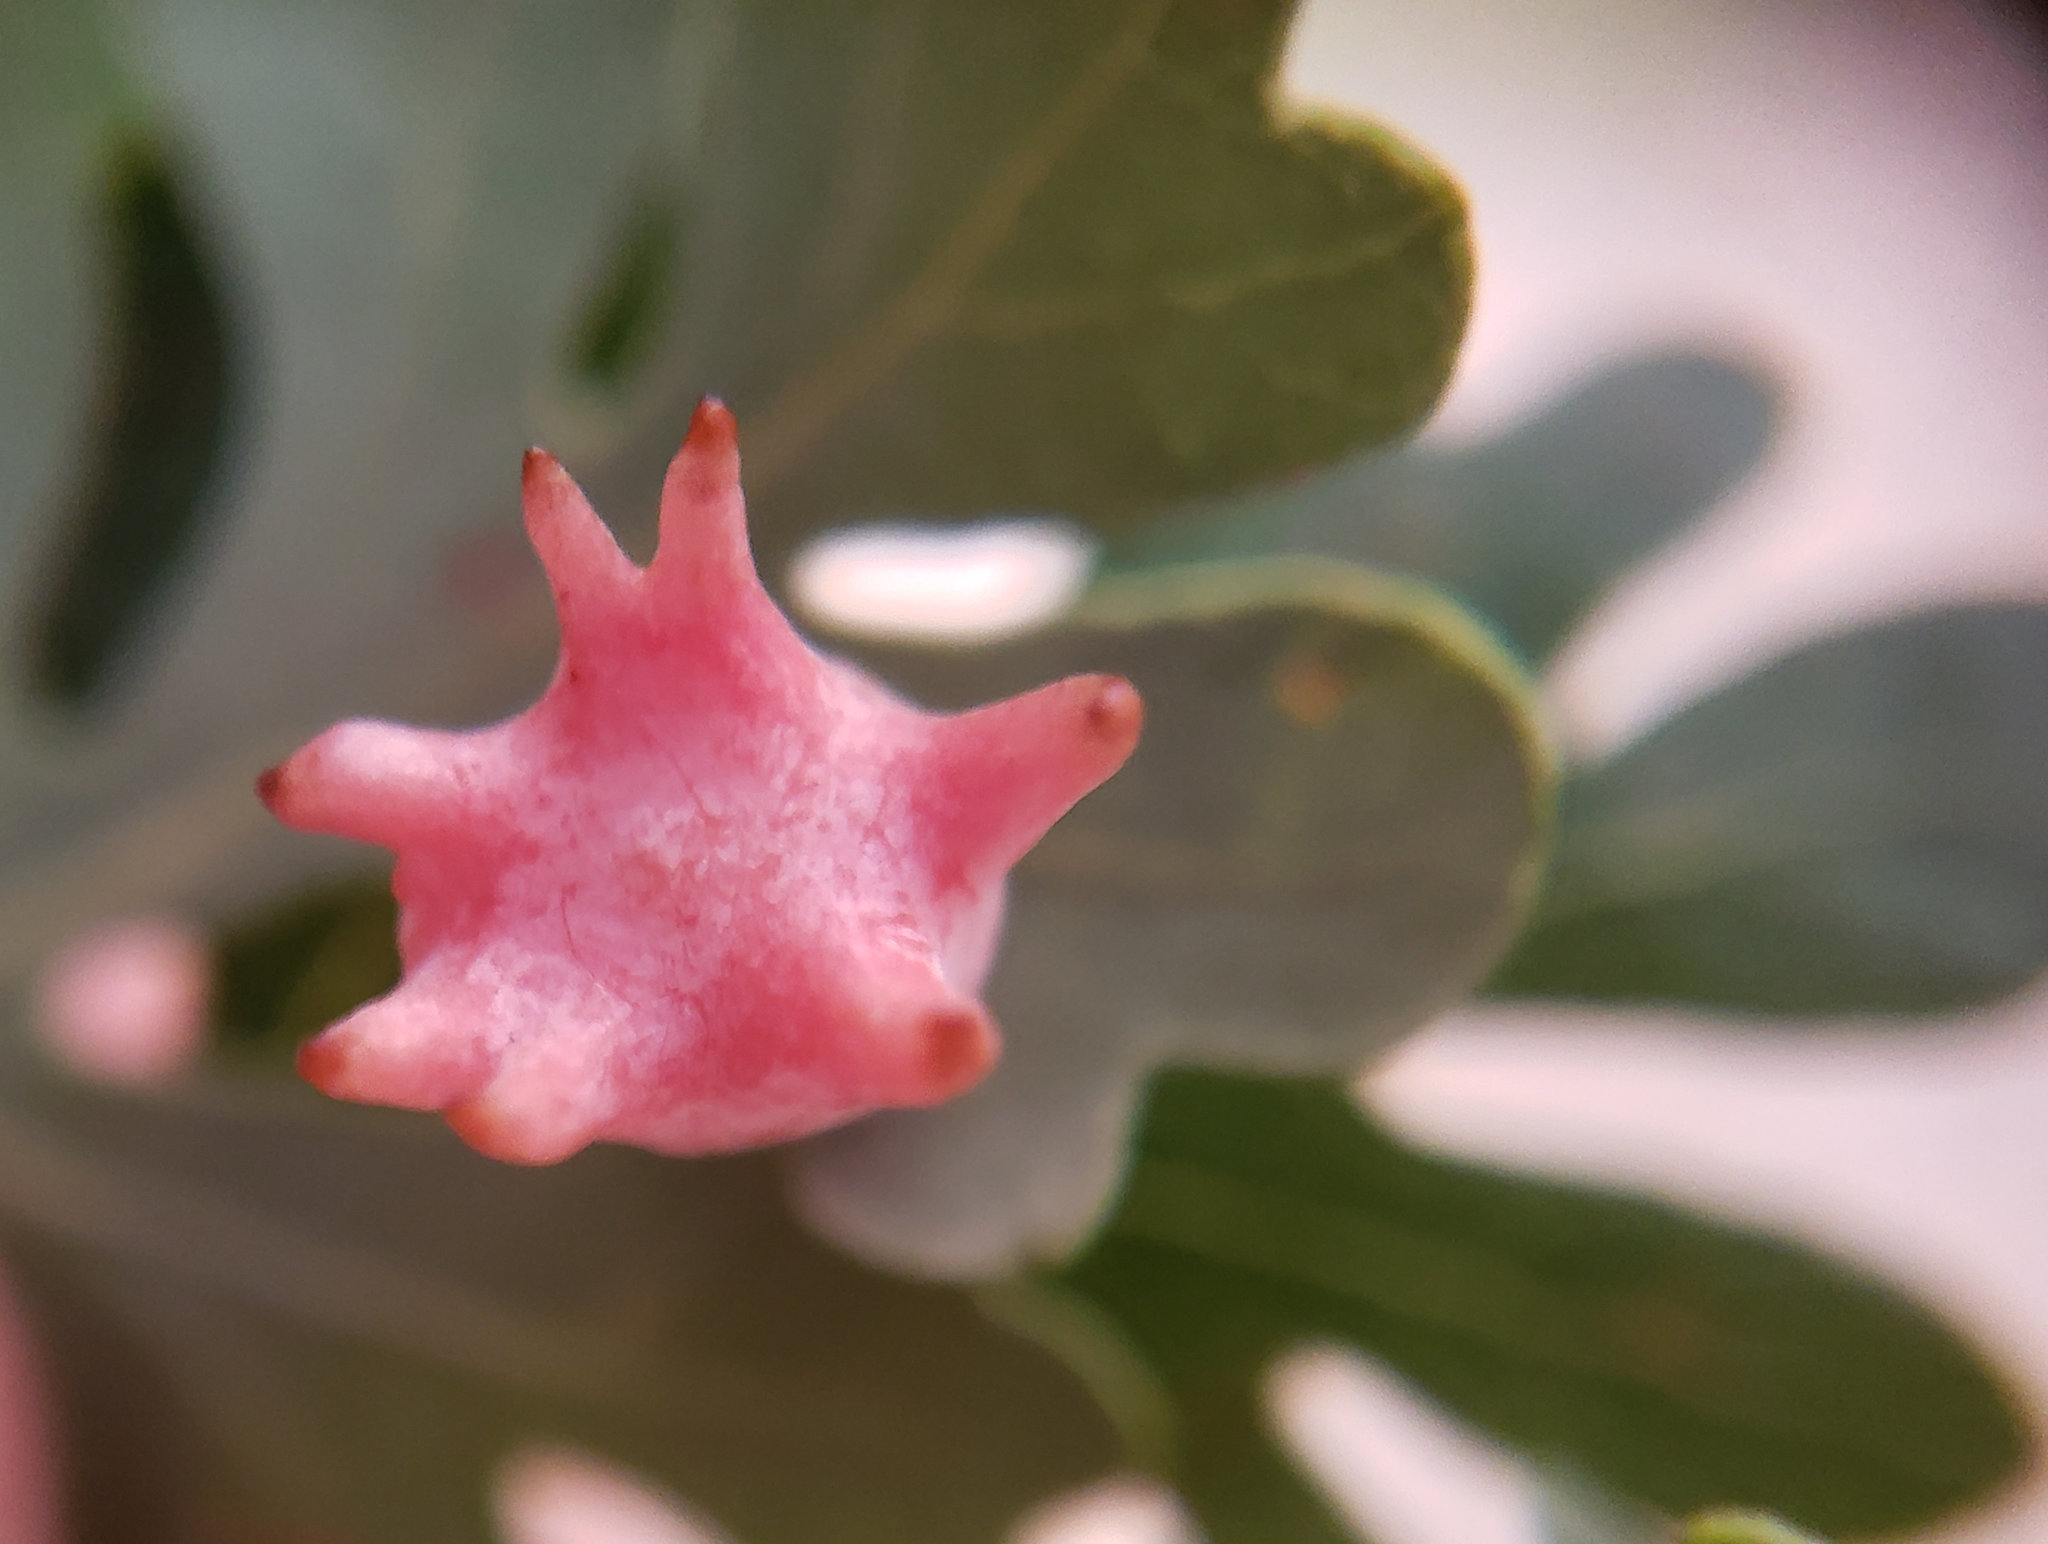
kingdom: Animalia
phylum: Arthropoda
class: Insecta
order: Hymenoptera
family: Cynipidae
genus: Cynips
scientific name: Cynips douglasi
